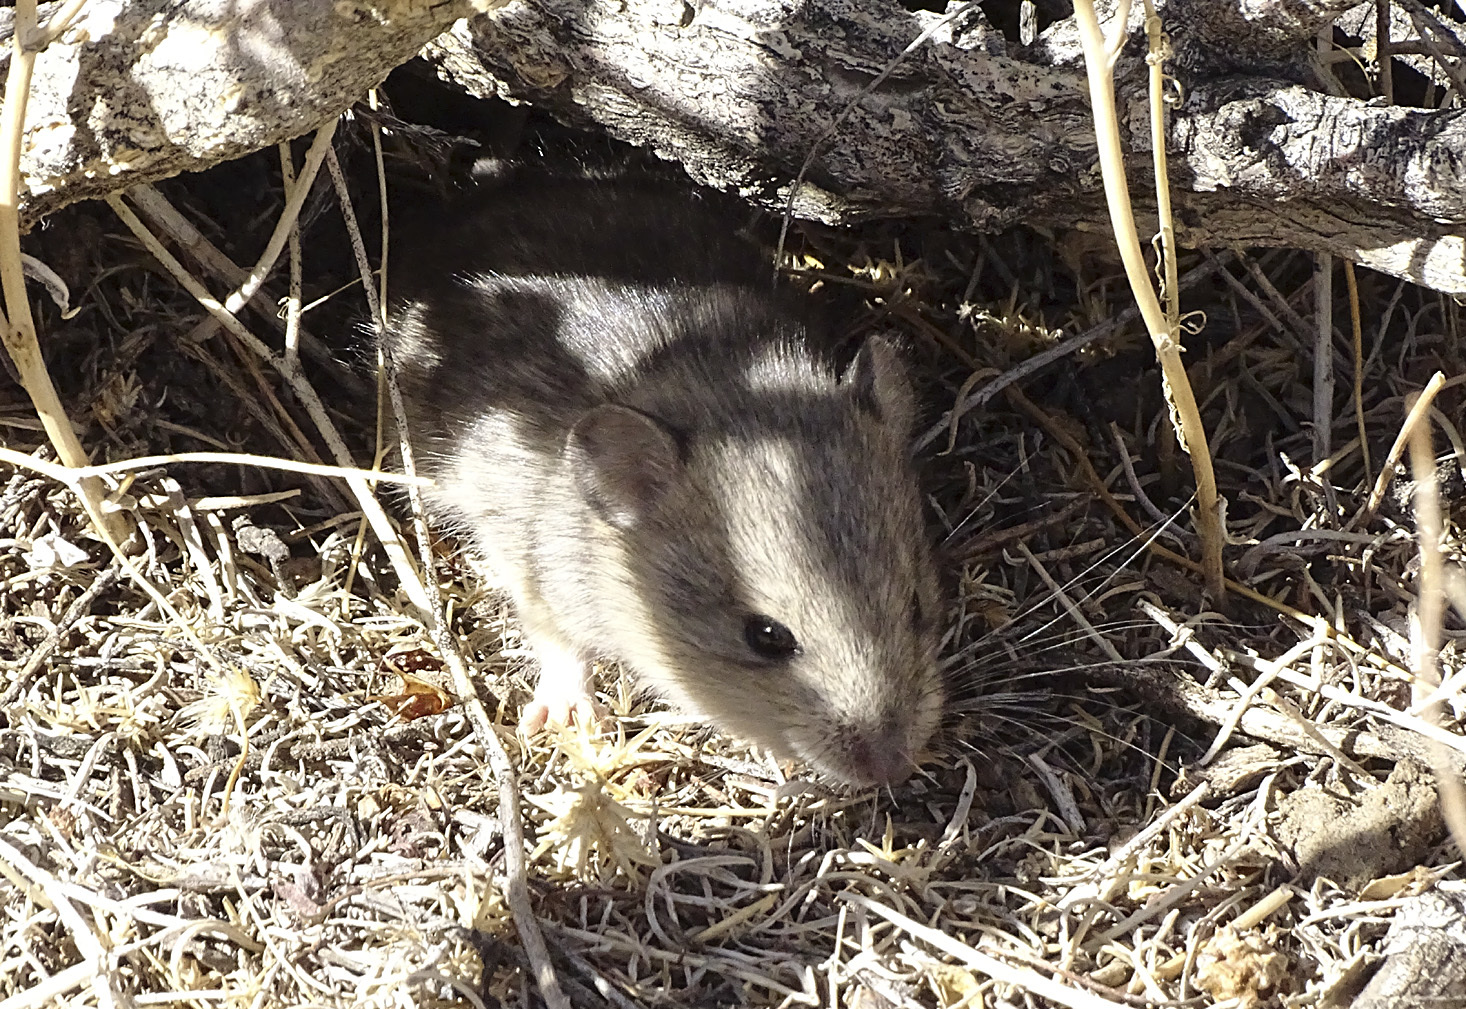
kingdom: Animalia
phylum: Chordata
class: Mammalia
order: Rodentia
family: Cricetidae
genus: Peromyscus
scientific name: Peromyscus maniculatus
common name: Deer mouse
